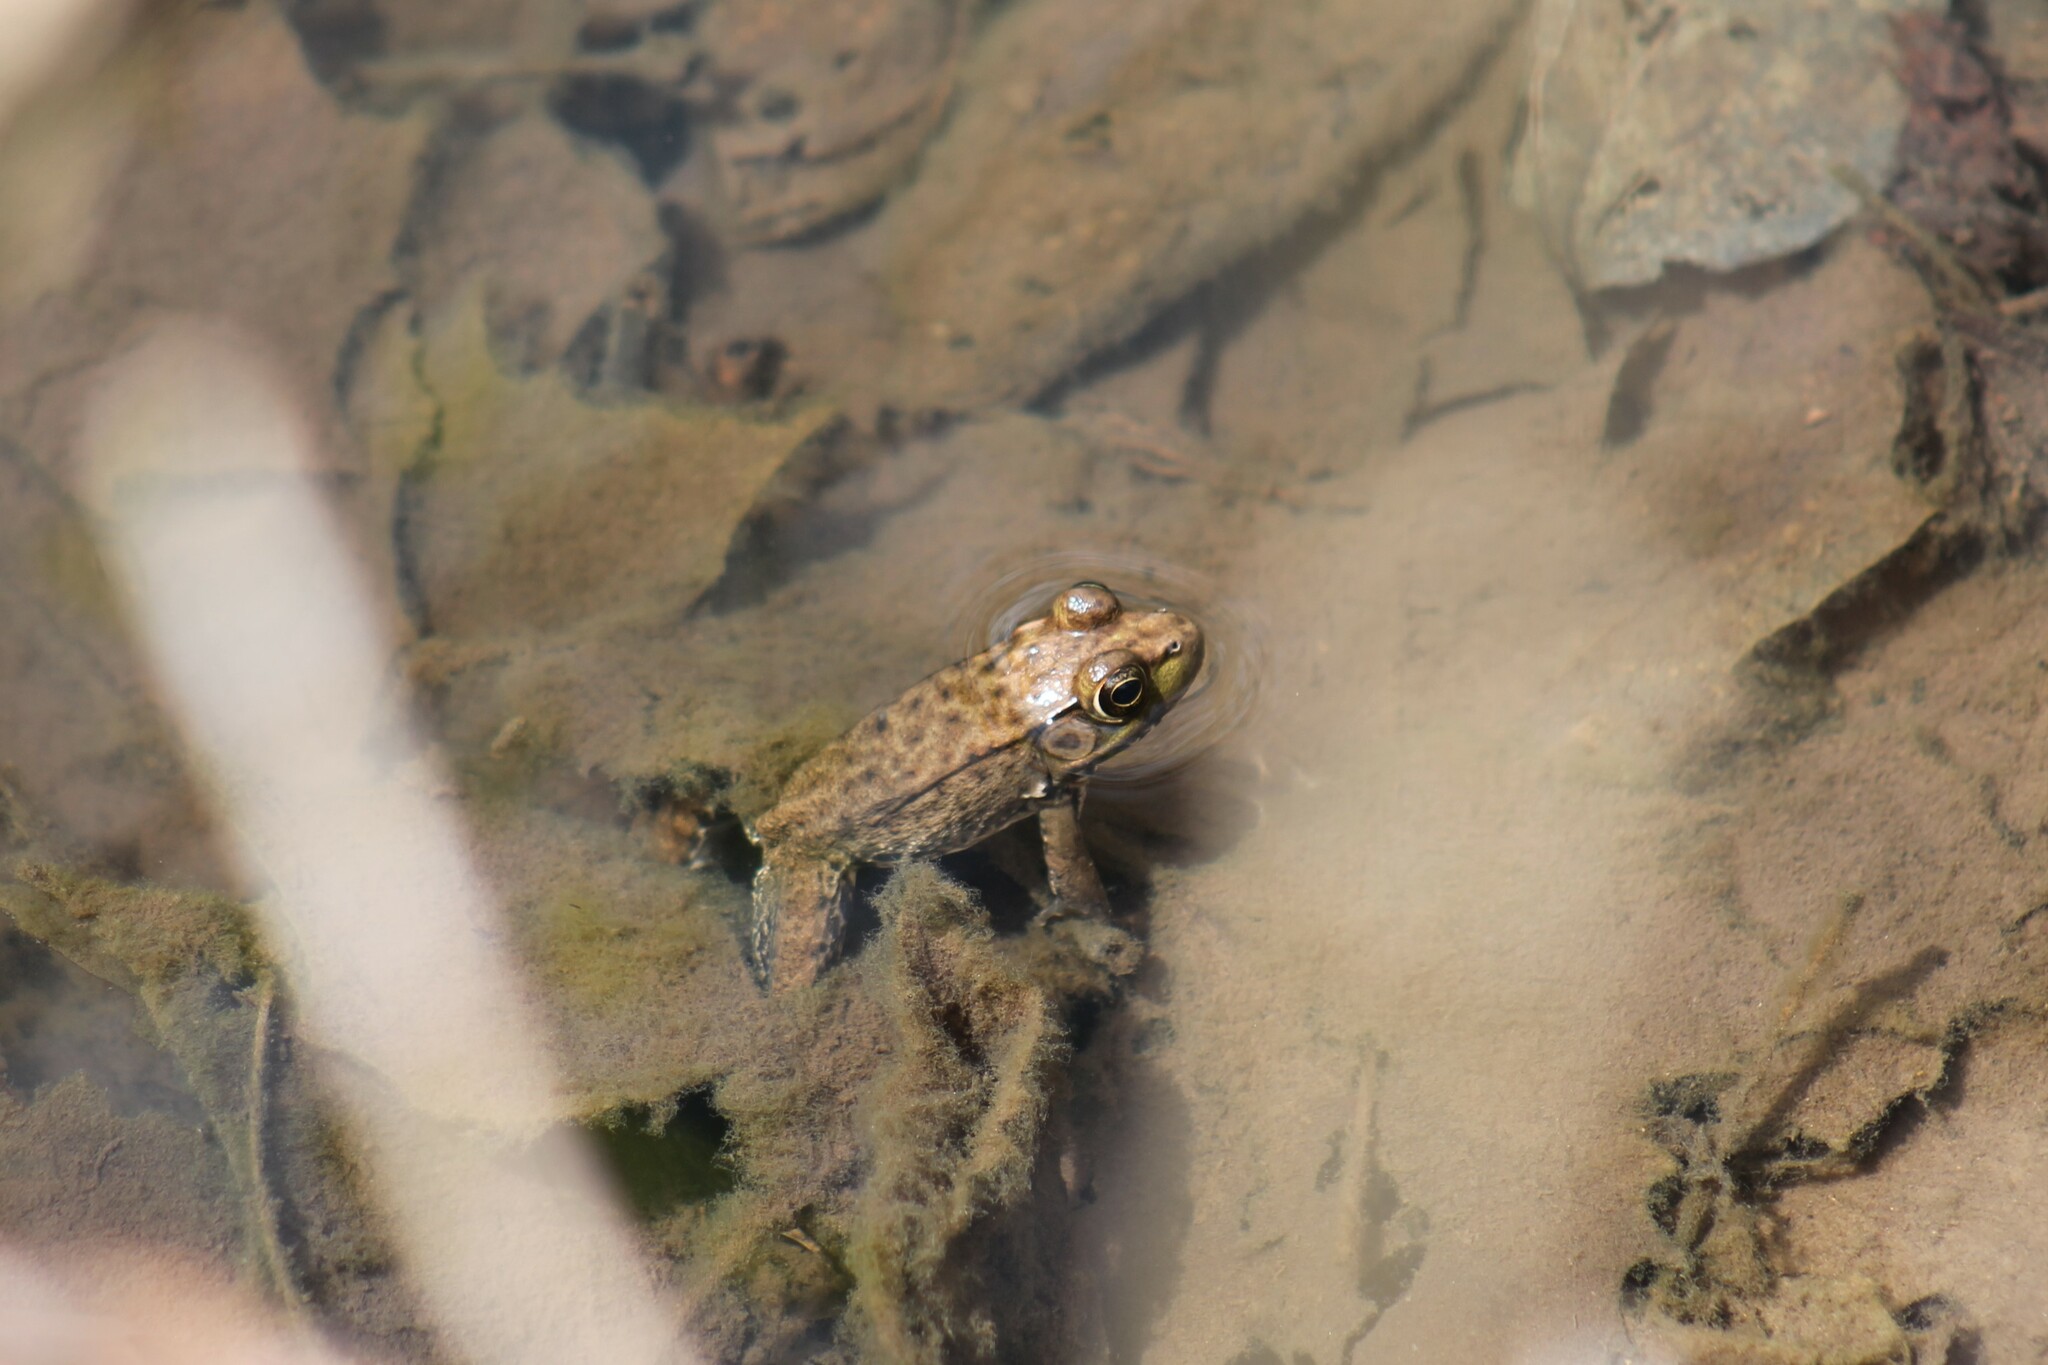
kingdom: Animalia
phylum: Chordata
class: Amphibia
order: Anura
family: Ranidae
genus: Lithobates
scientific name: Lithobates clamitans
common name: Green frog
